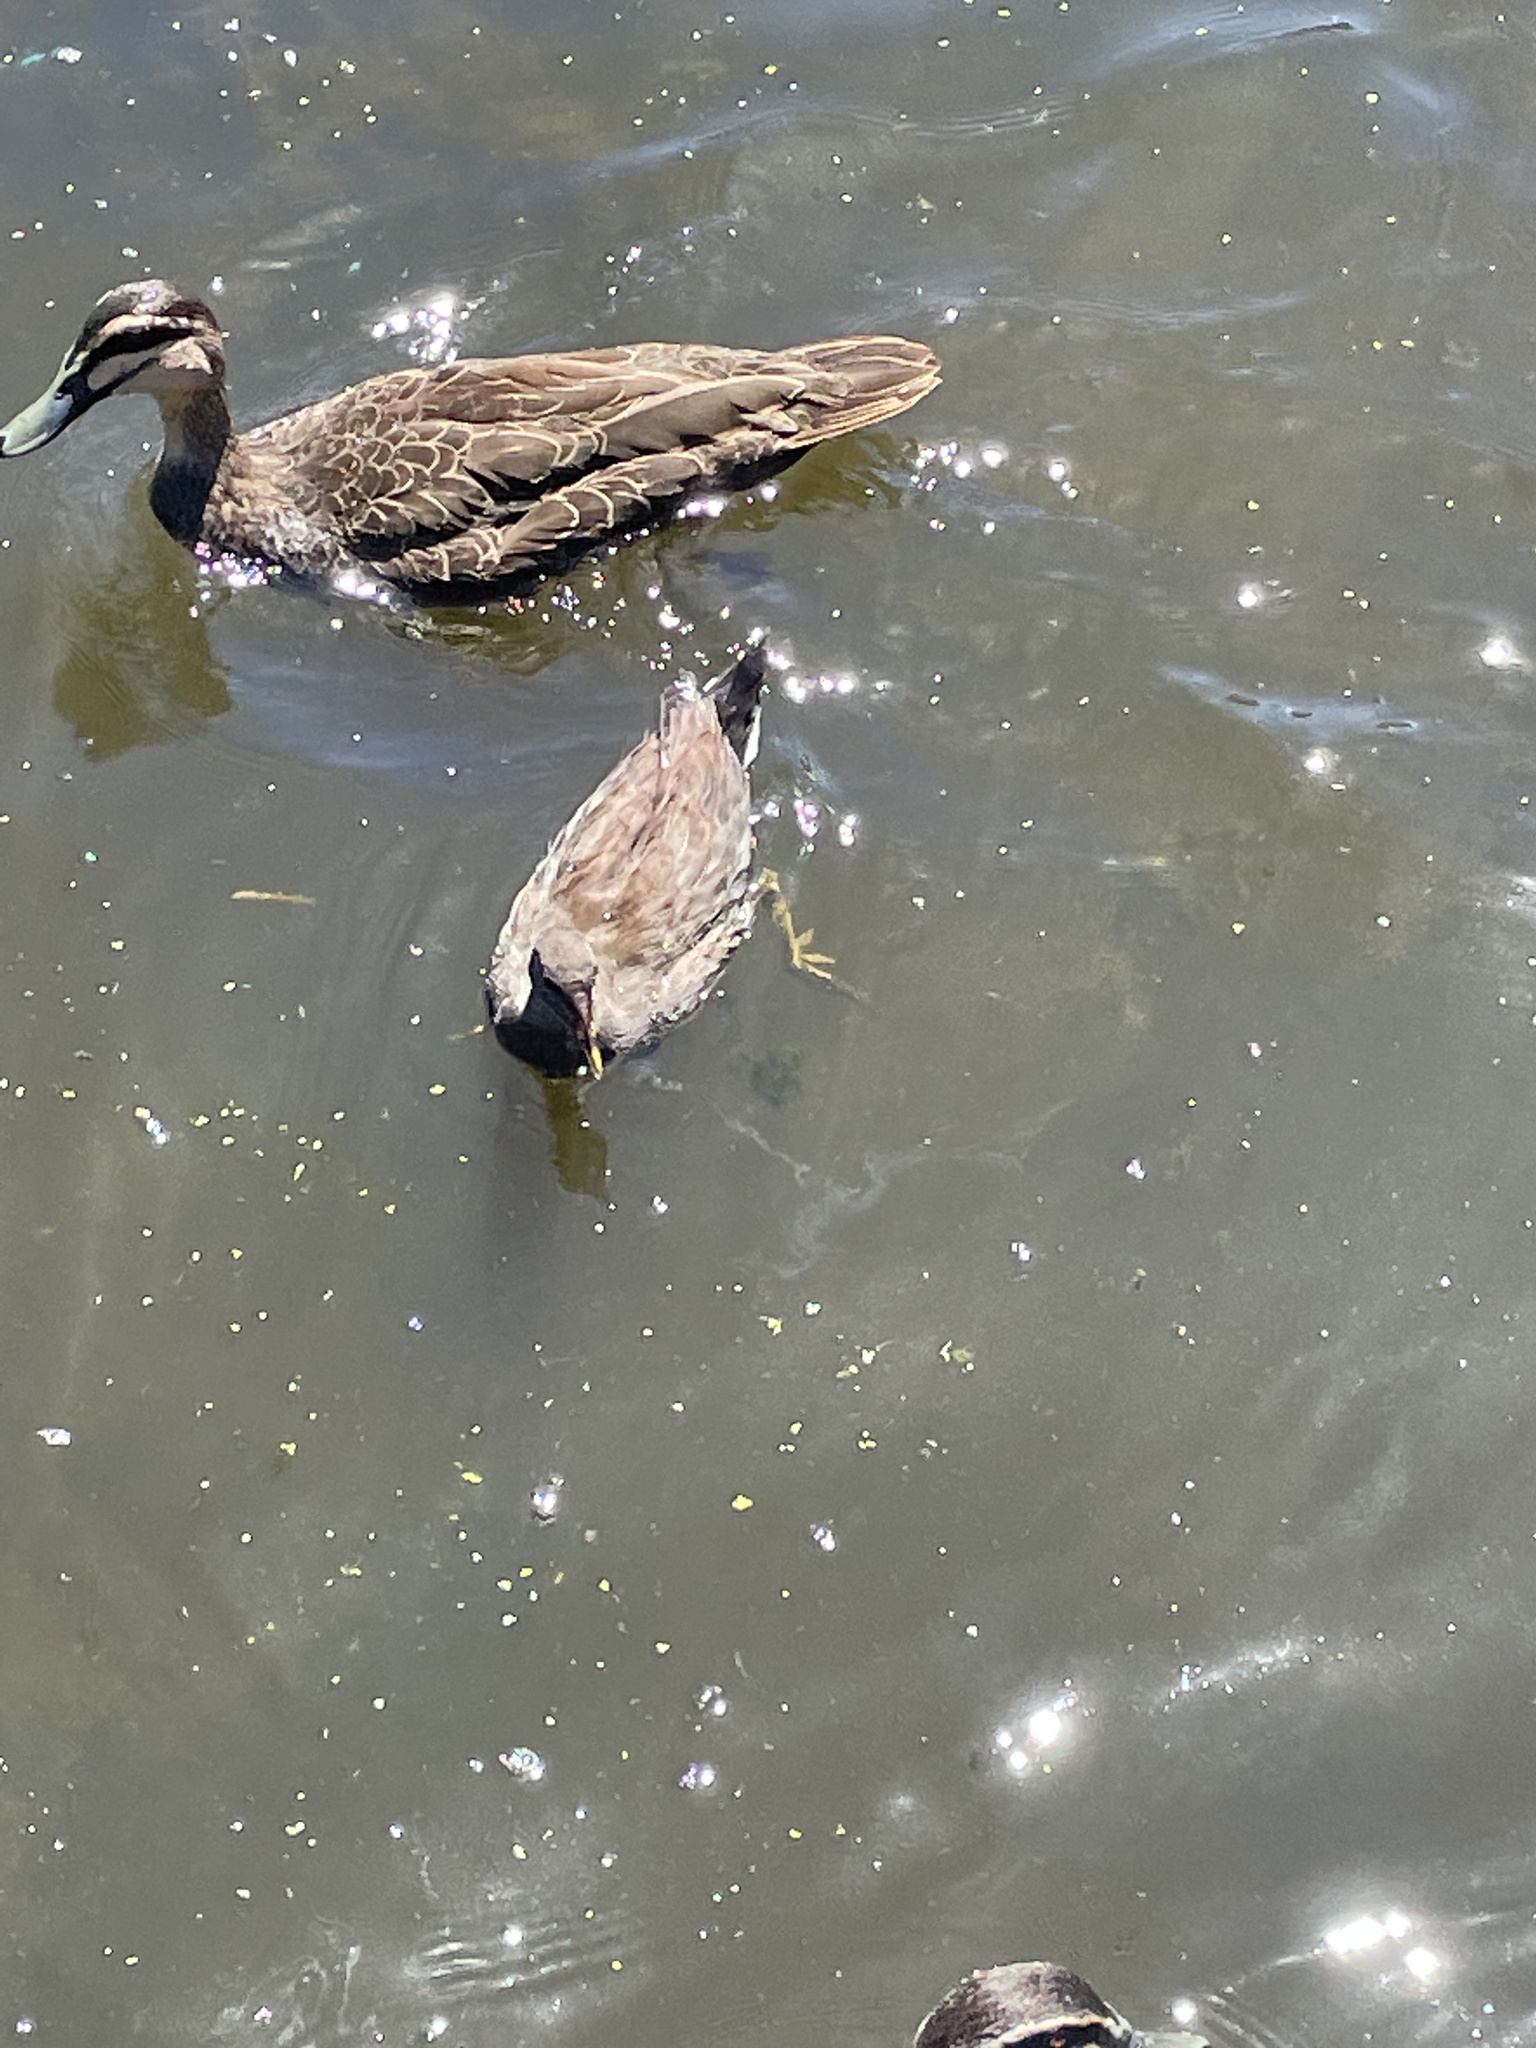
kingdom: Animalia
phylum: Chordata
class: Aves
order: Gruiformes
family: Rallidae
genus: Gallinula
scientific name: Gallinula tenebrosa
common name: Dusky moorhen
